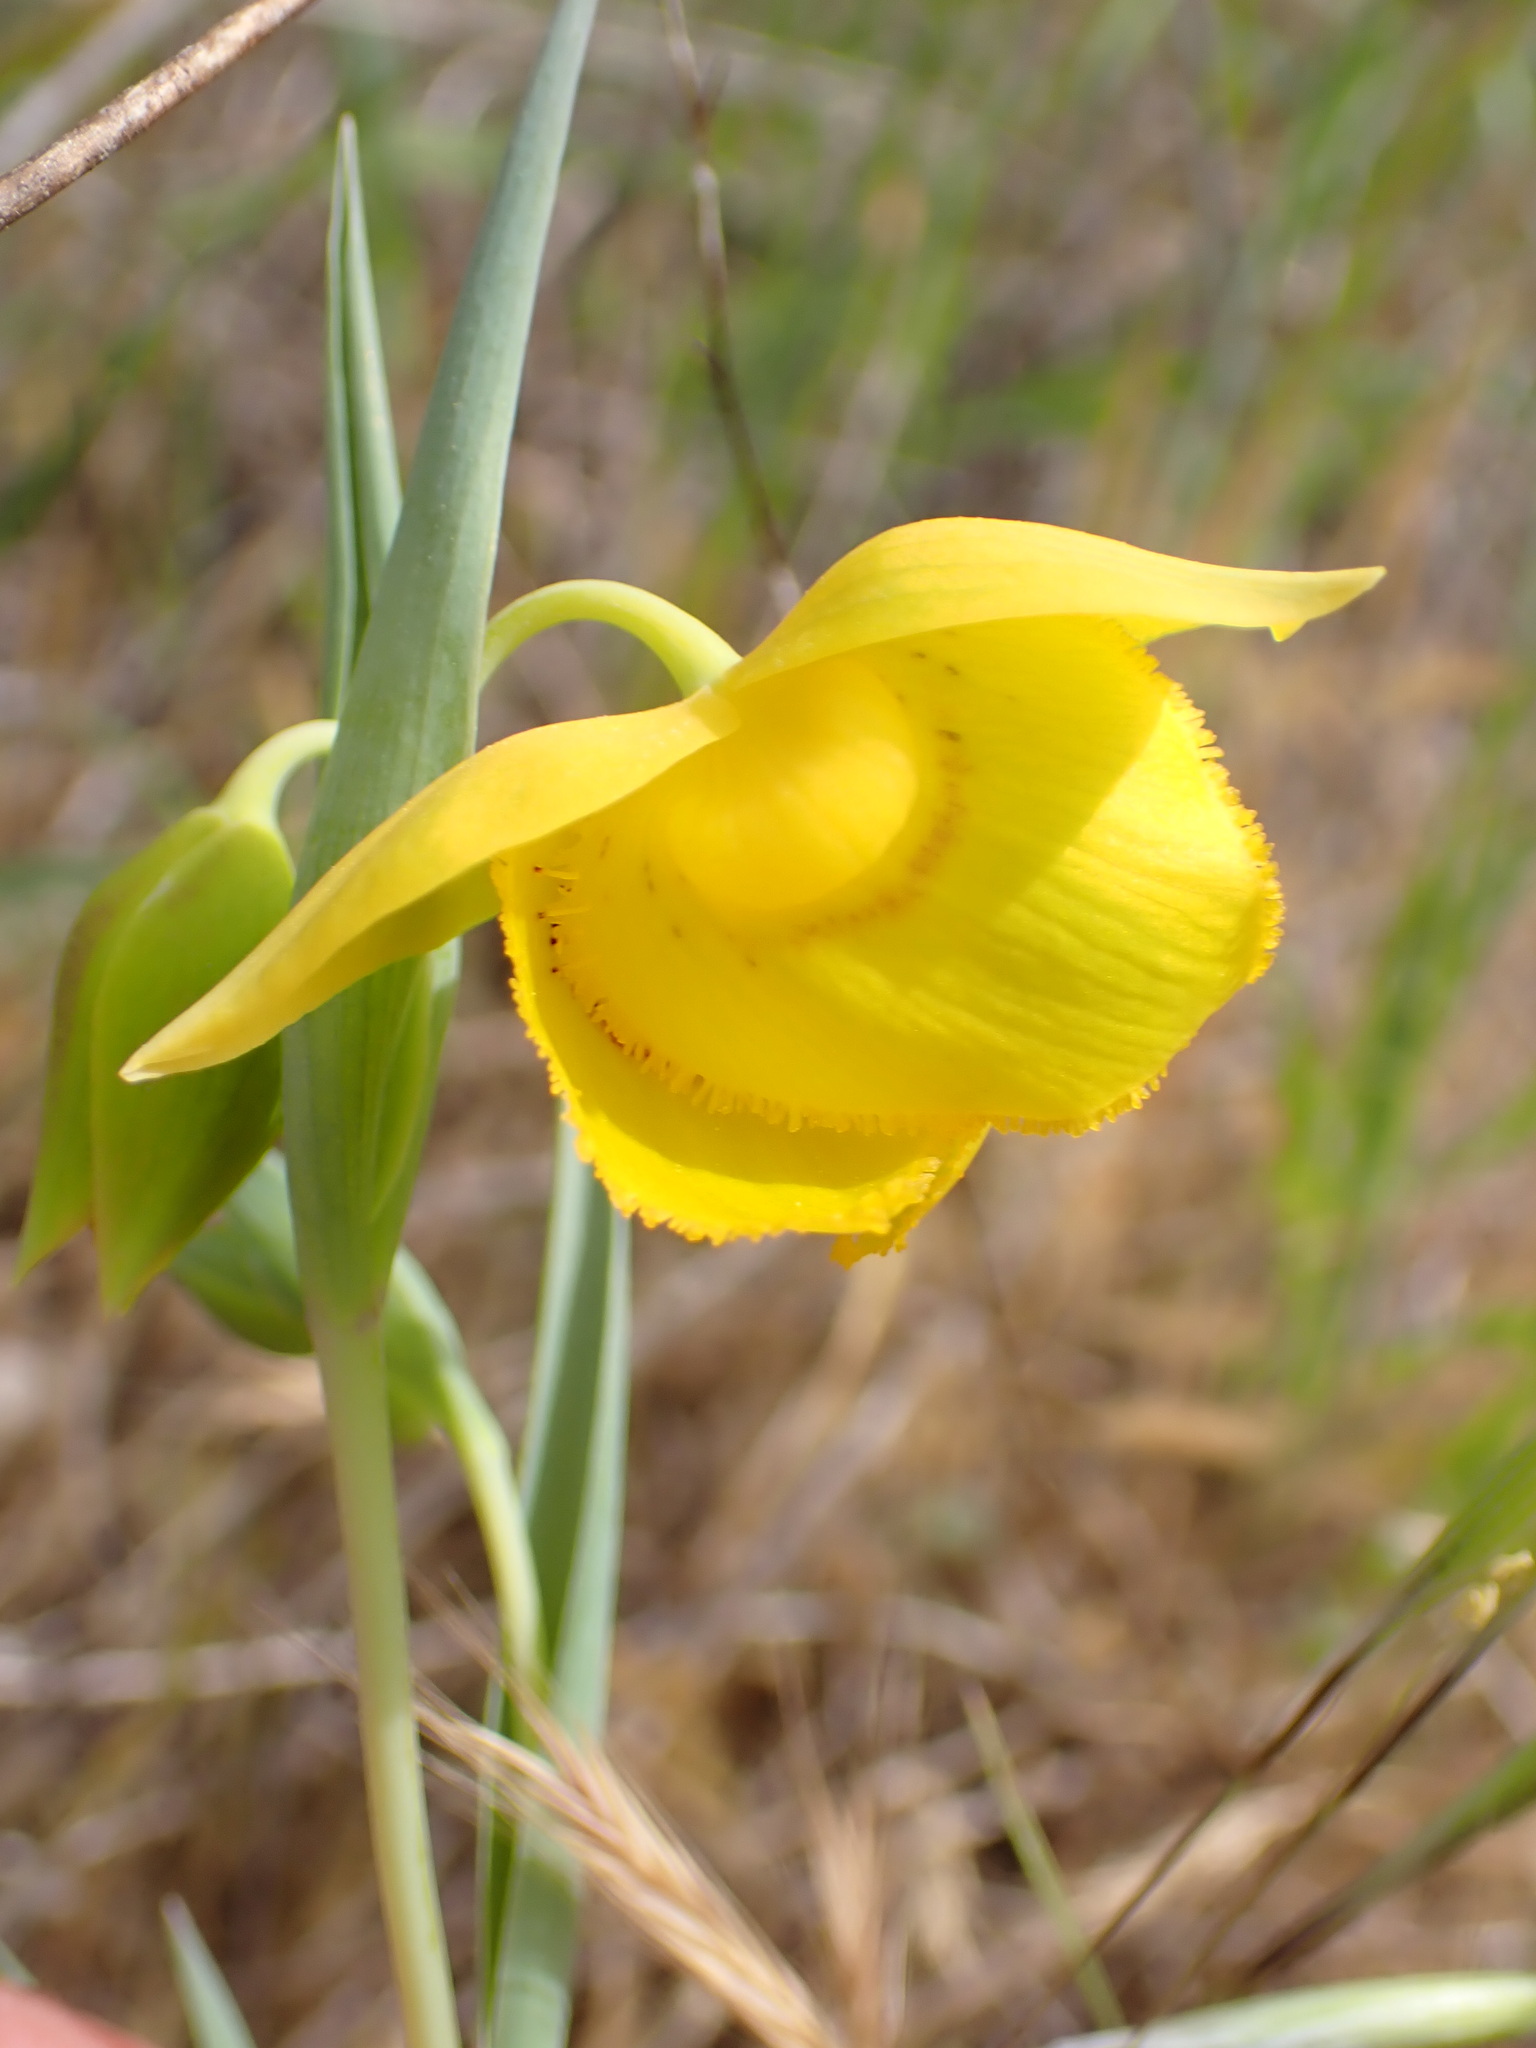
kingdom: Plantae
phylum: Tracheophyta
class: Liliopsida
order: Liliales
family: Liliaceae
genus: Calochortus
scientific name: Calochortus amabilis
